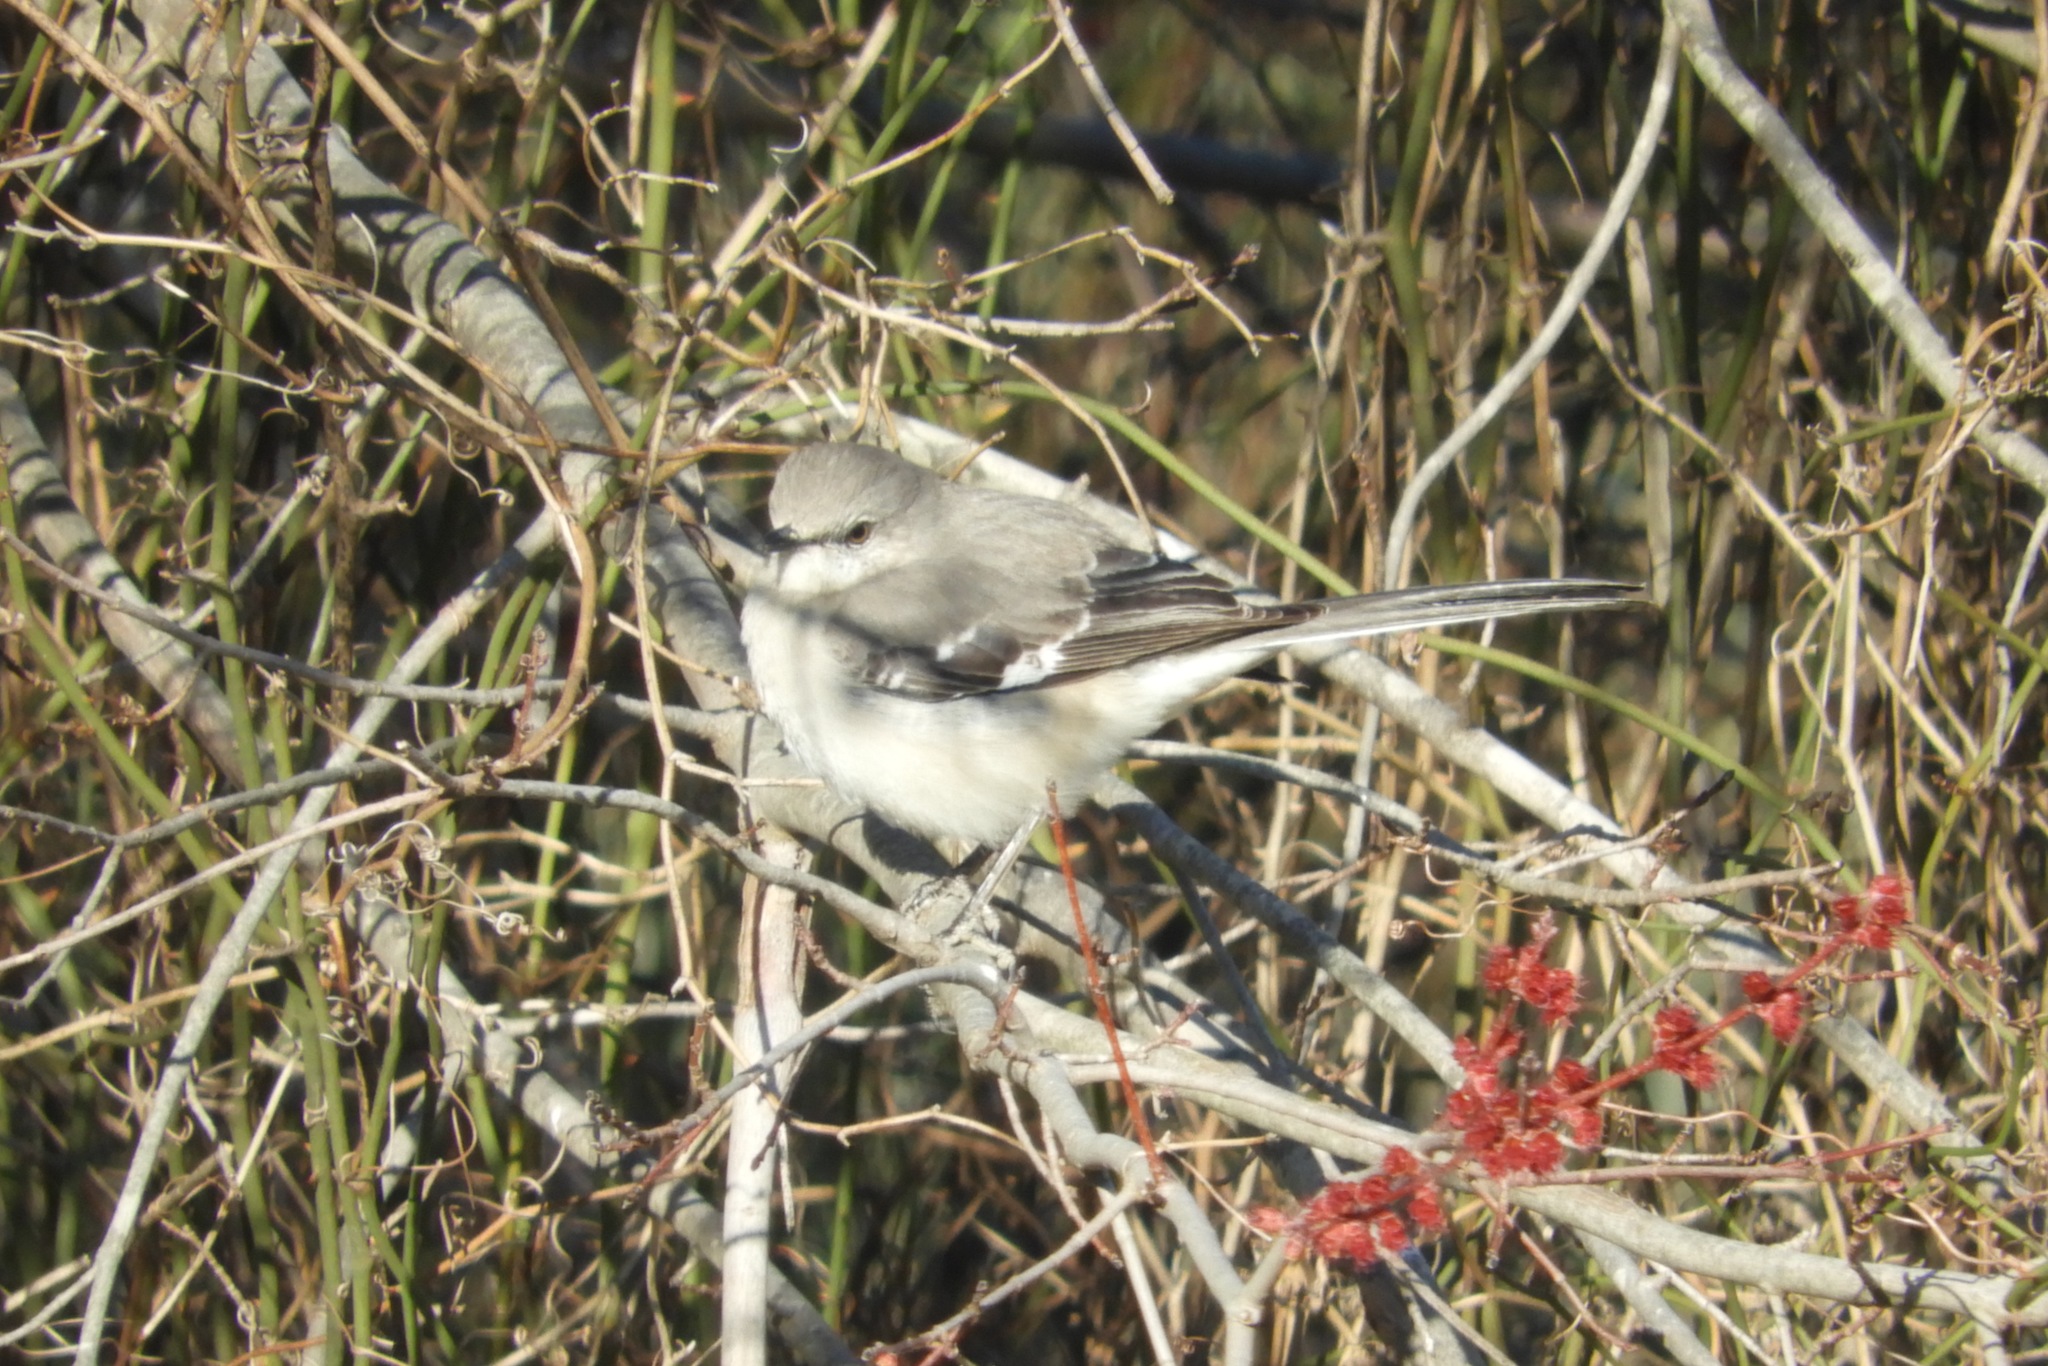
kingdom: Animalia
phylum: Chordata
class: Aves
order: Passeriformes
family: Mimidae
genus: Mimus
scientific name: Mimus polyglottos
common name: Northern mockingbird
